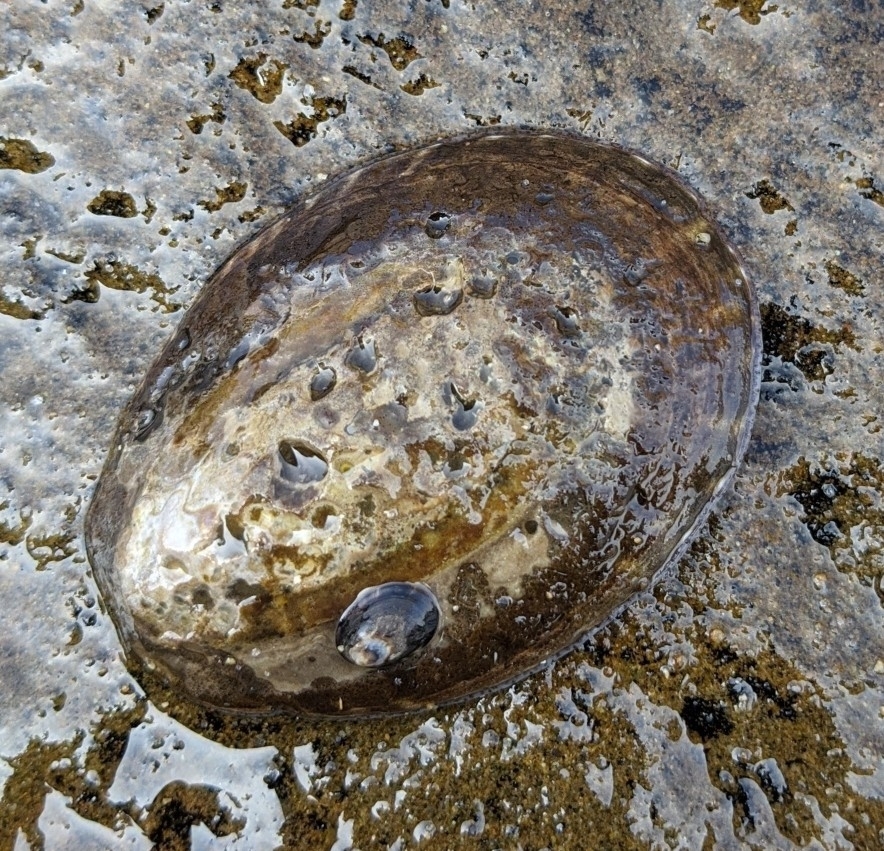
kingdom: Animalia
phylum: Mollusca
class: Gastropoda
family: Lottiidae
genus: Lottia
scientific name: Lottia gigantea
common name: Owl limpet
